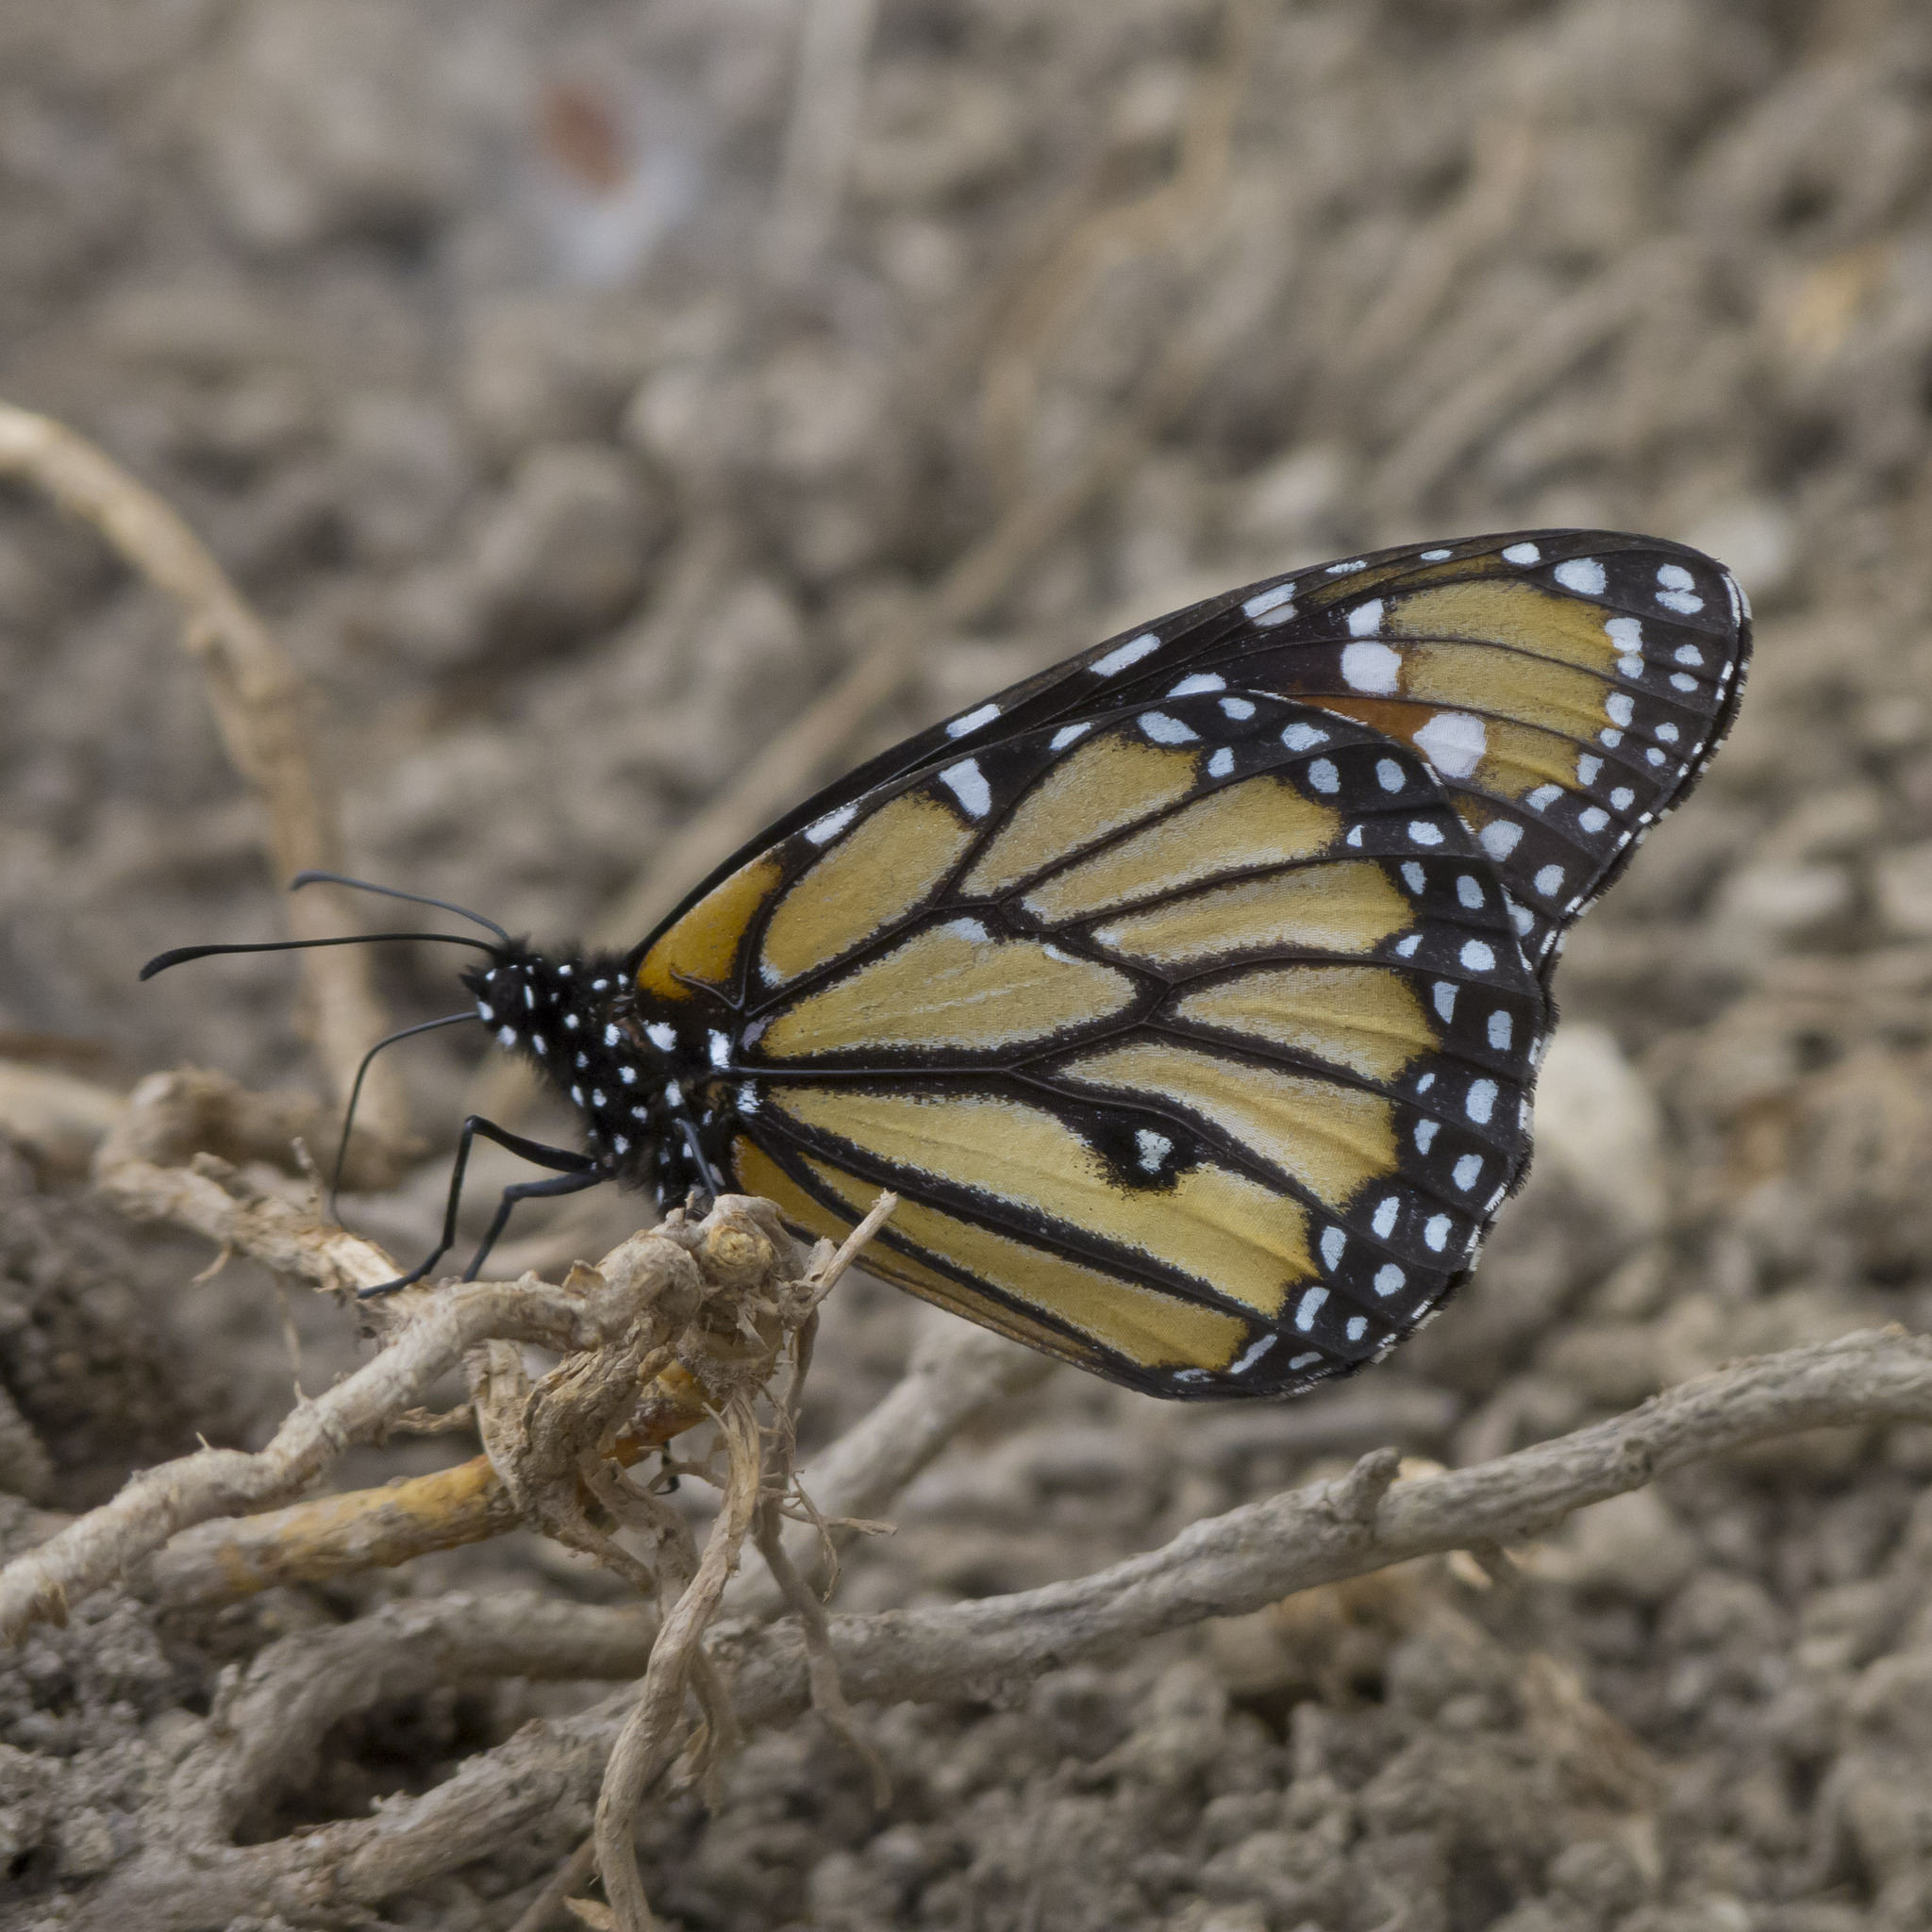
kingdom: Animalia
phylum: Arthropoda
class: Insecta
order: Lepidoptera
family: Nymphalidae
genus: Danaus
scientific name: Danaus gilippus
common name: Queen
